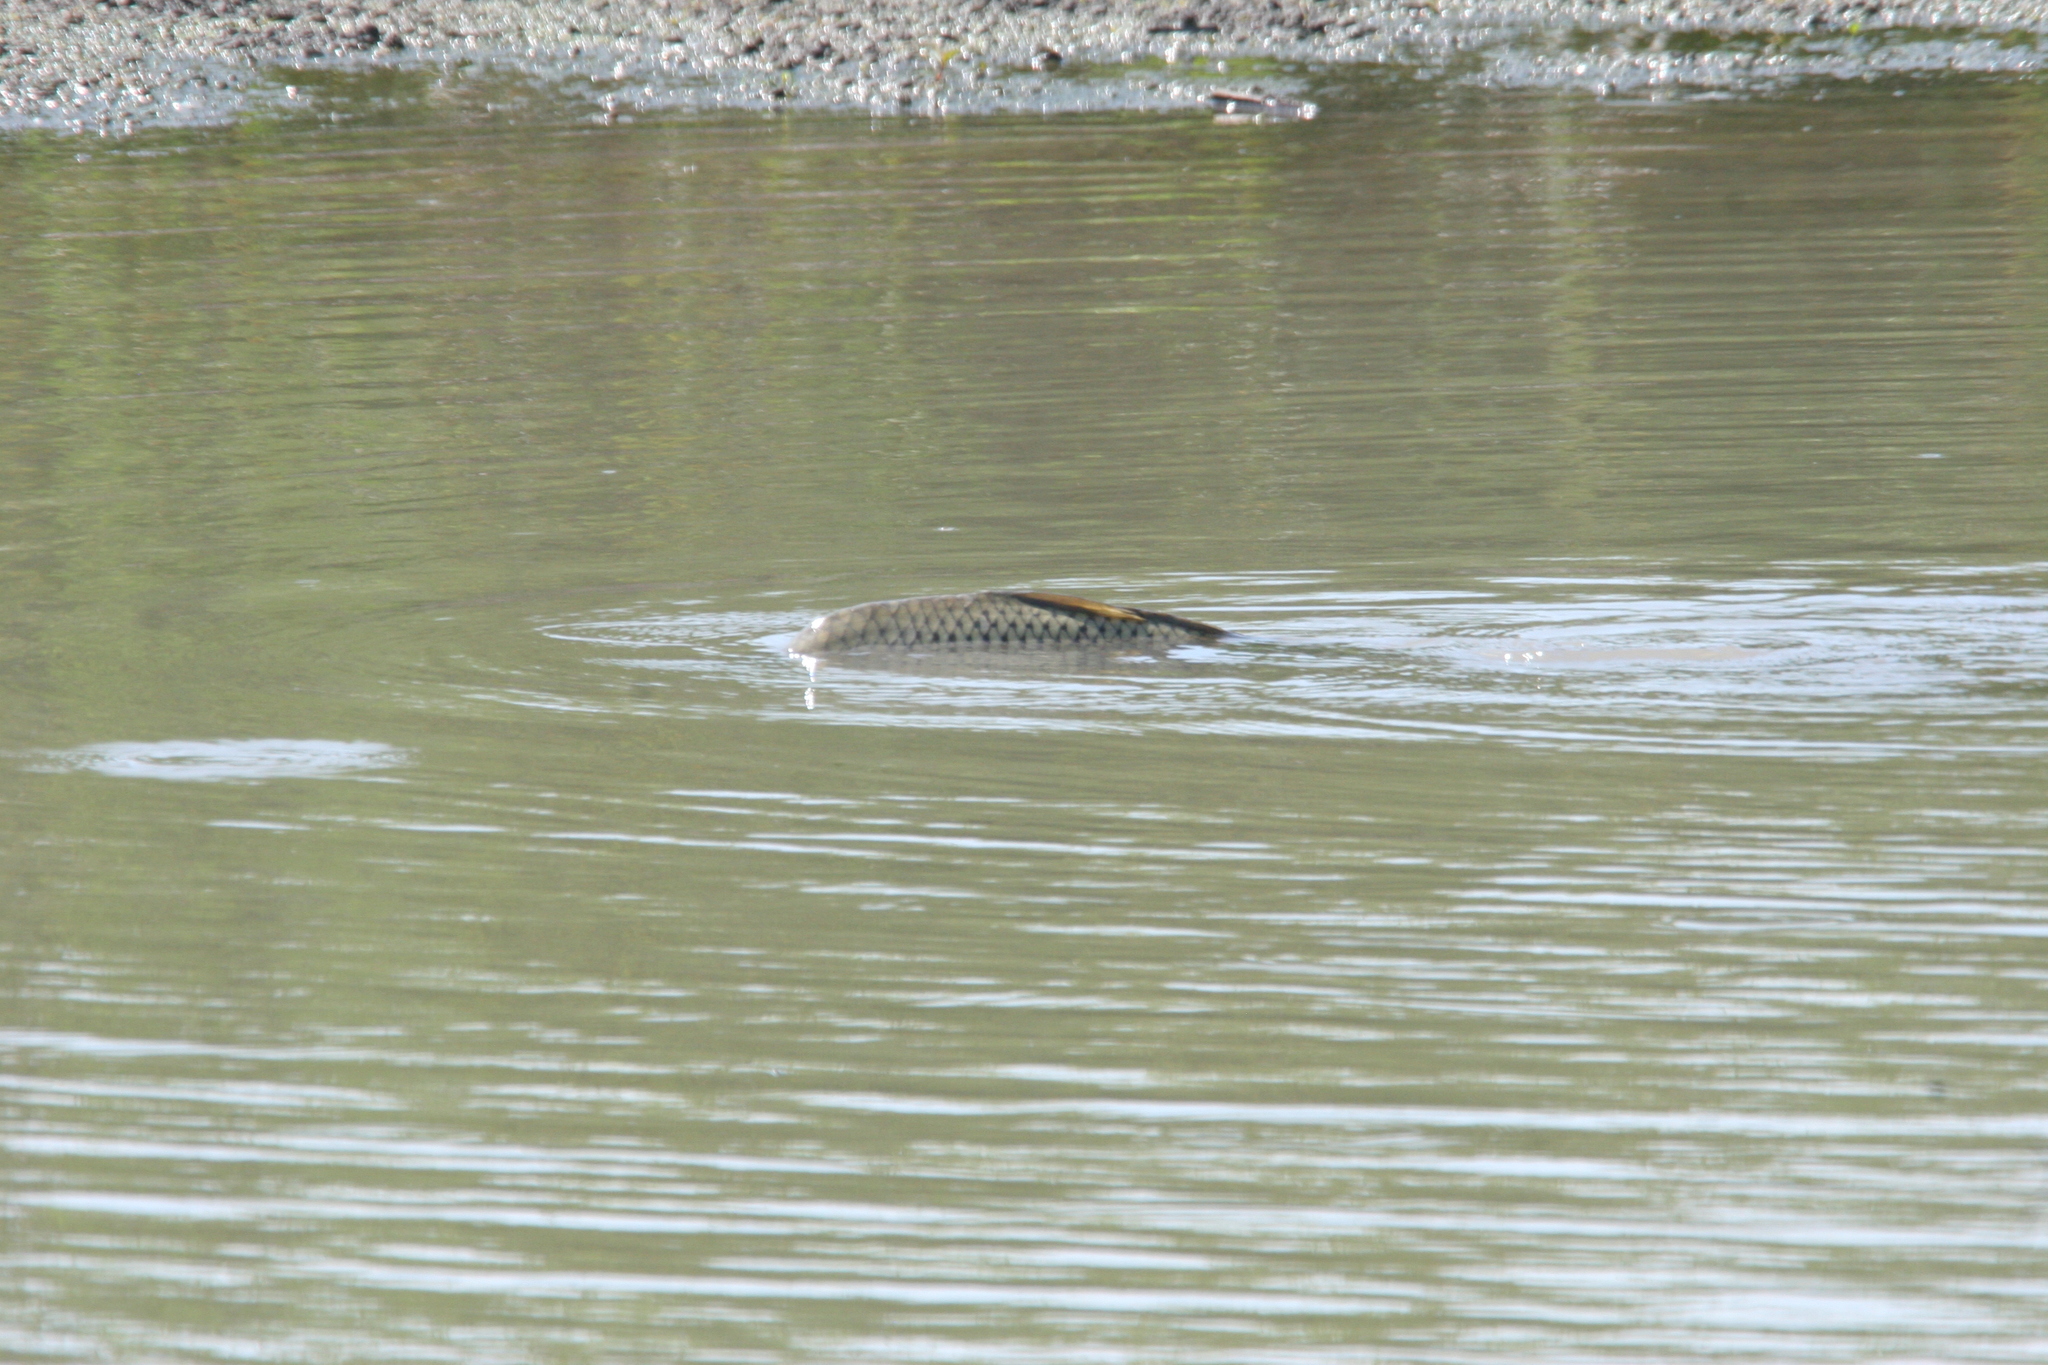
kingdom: Animalia
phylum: Chordata
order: Cypriniformes
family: Cyprinidae
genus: Cyprinus
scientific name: Cyprinus carpio
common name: Common carp
